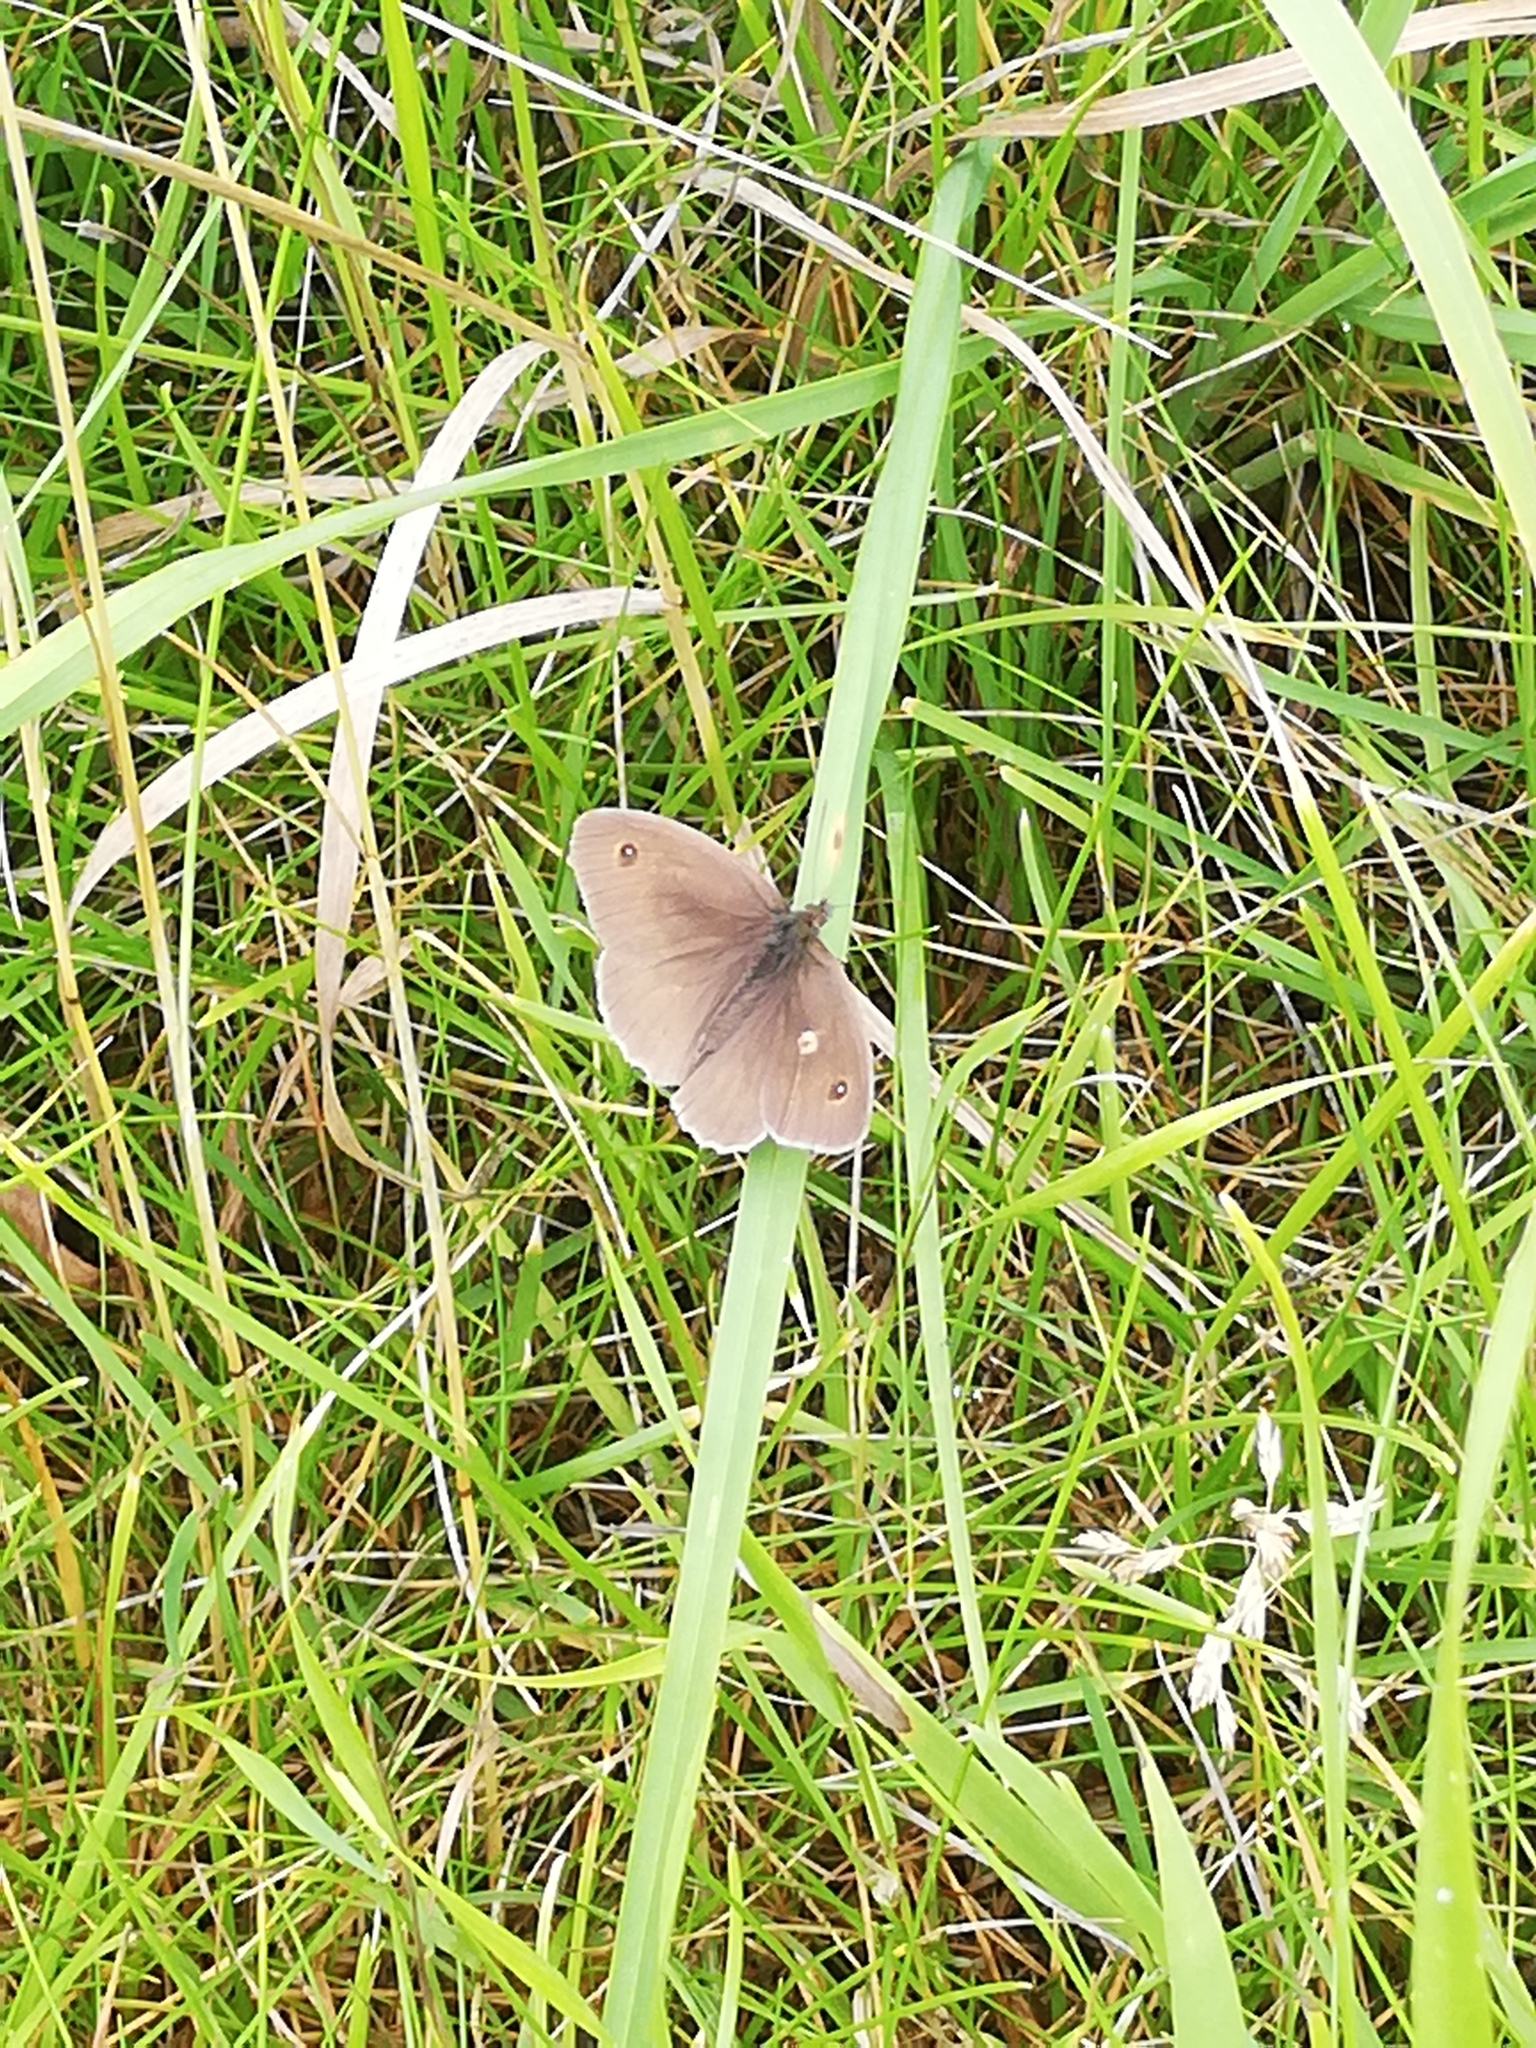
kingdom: Animalia
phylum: Arthropoda
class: Insecta
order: Lepidoptera
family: Nymphalidae
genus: Maniola
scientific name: Maniola jurtina
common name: Meadow brown
